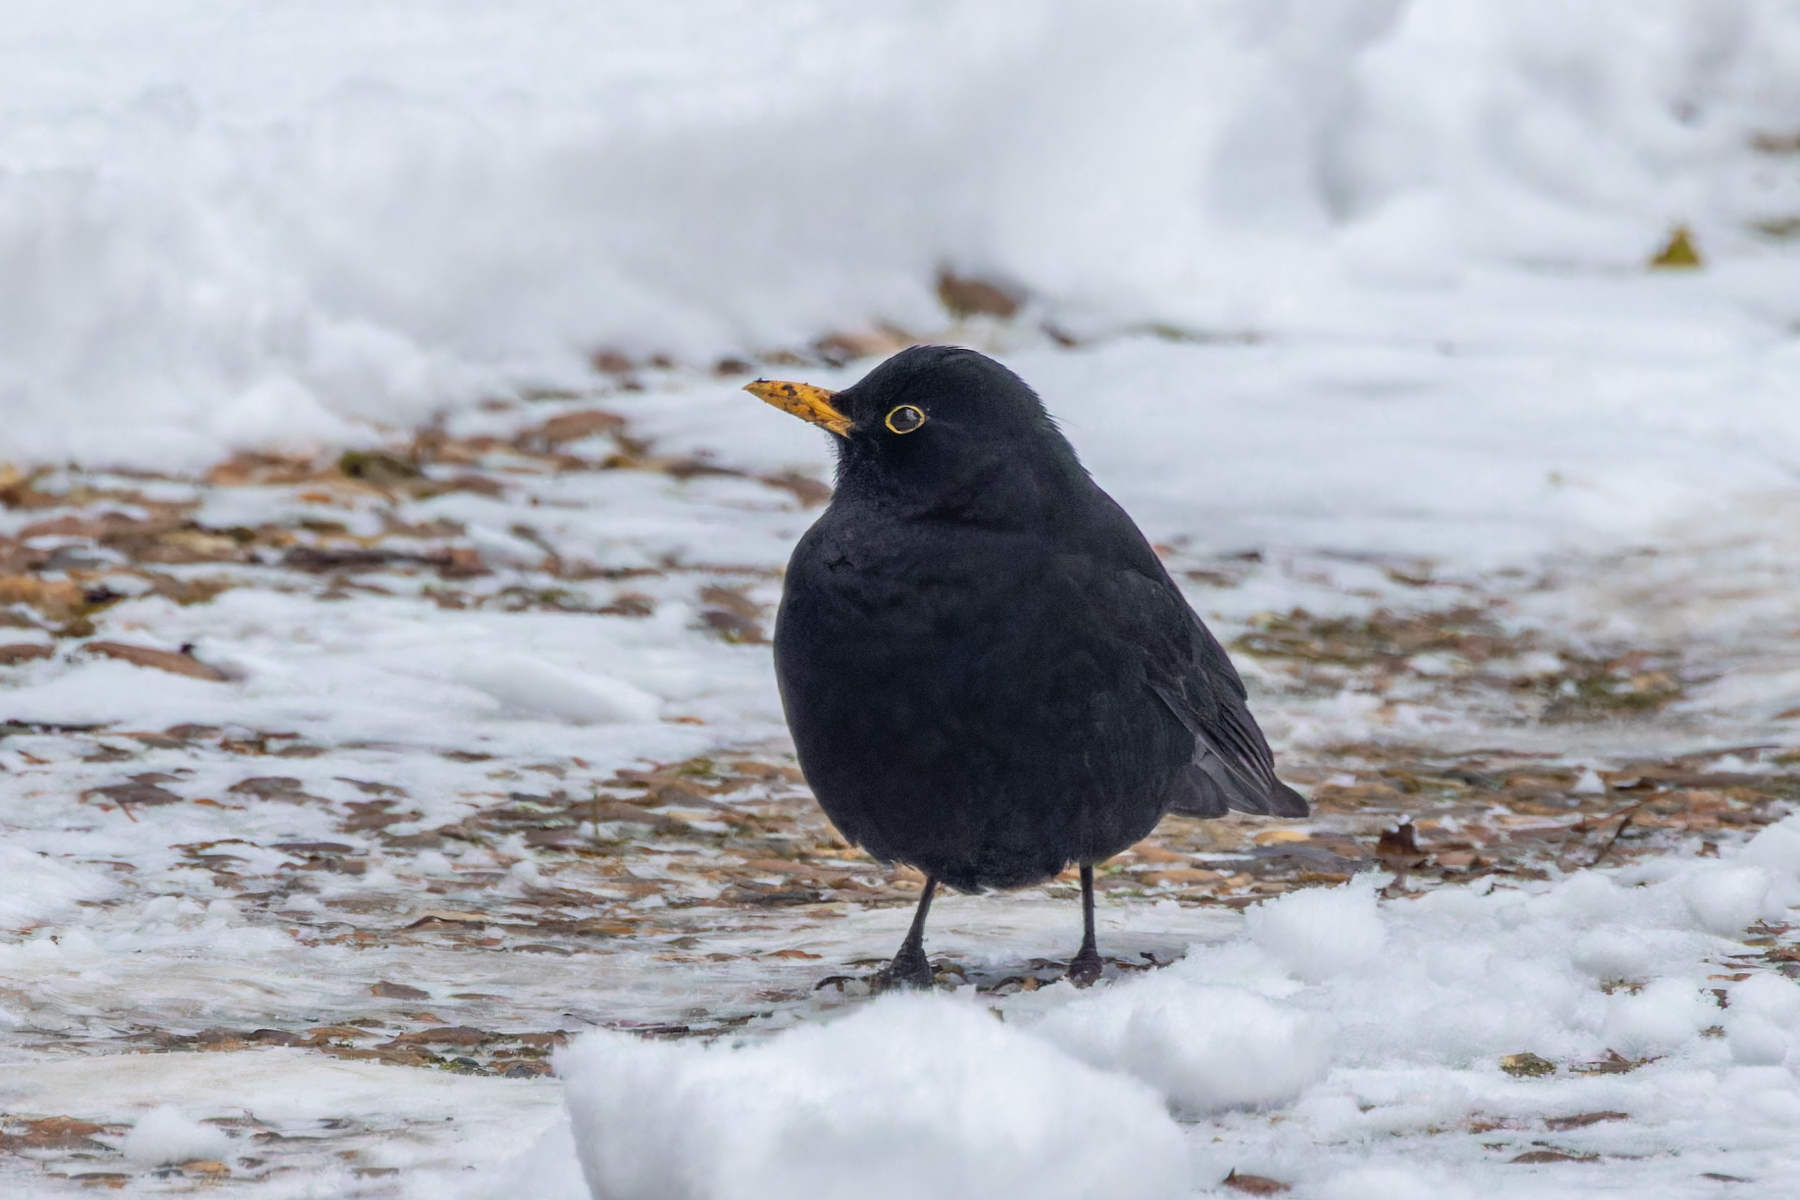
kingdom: Animalia
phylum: Chordata
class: Aves
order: Passeriformes
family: Turdidae
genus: Turdus
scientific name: Turdus merula
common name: Common blackbird
